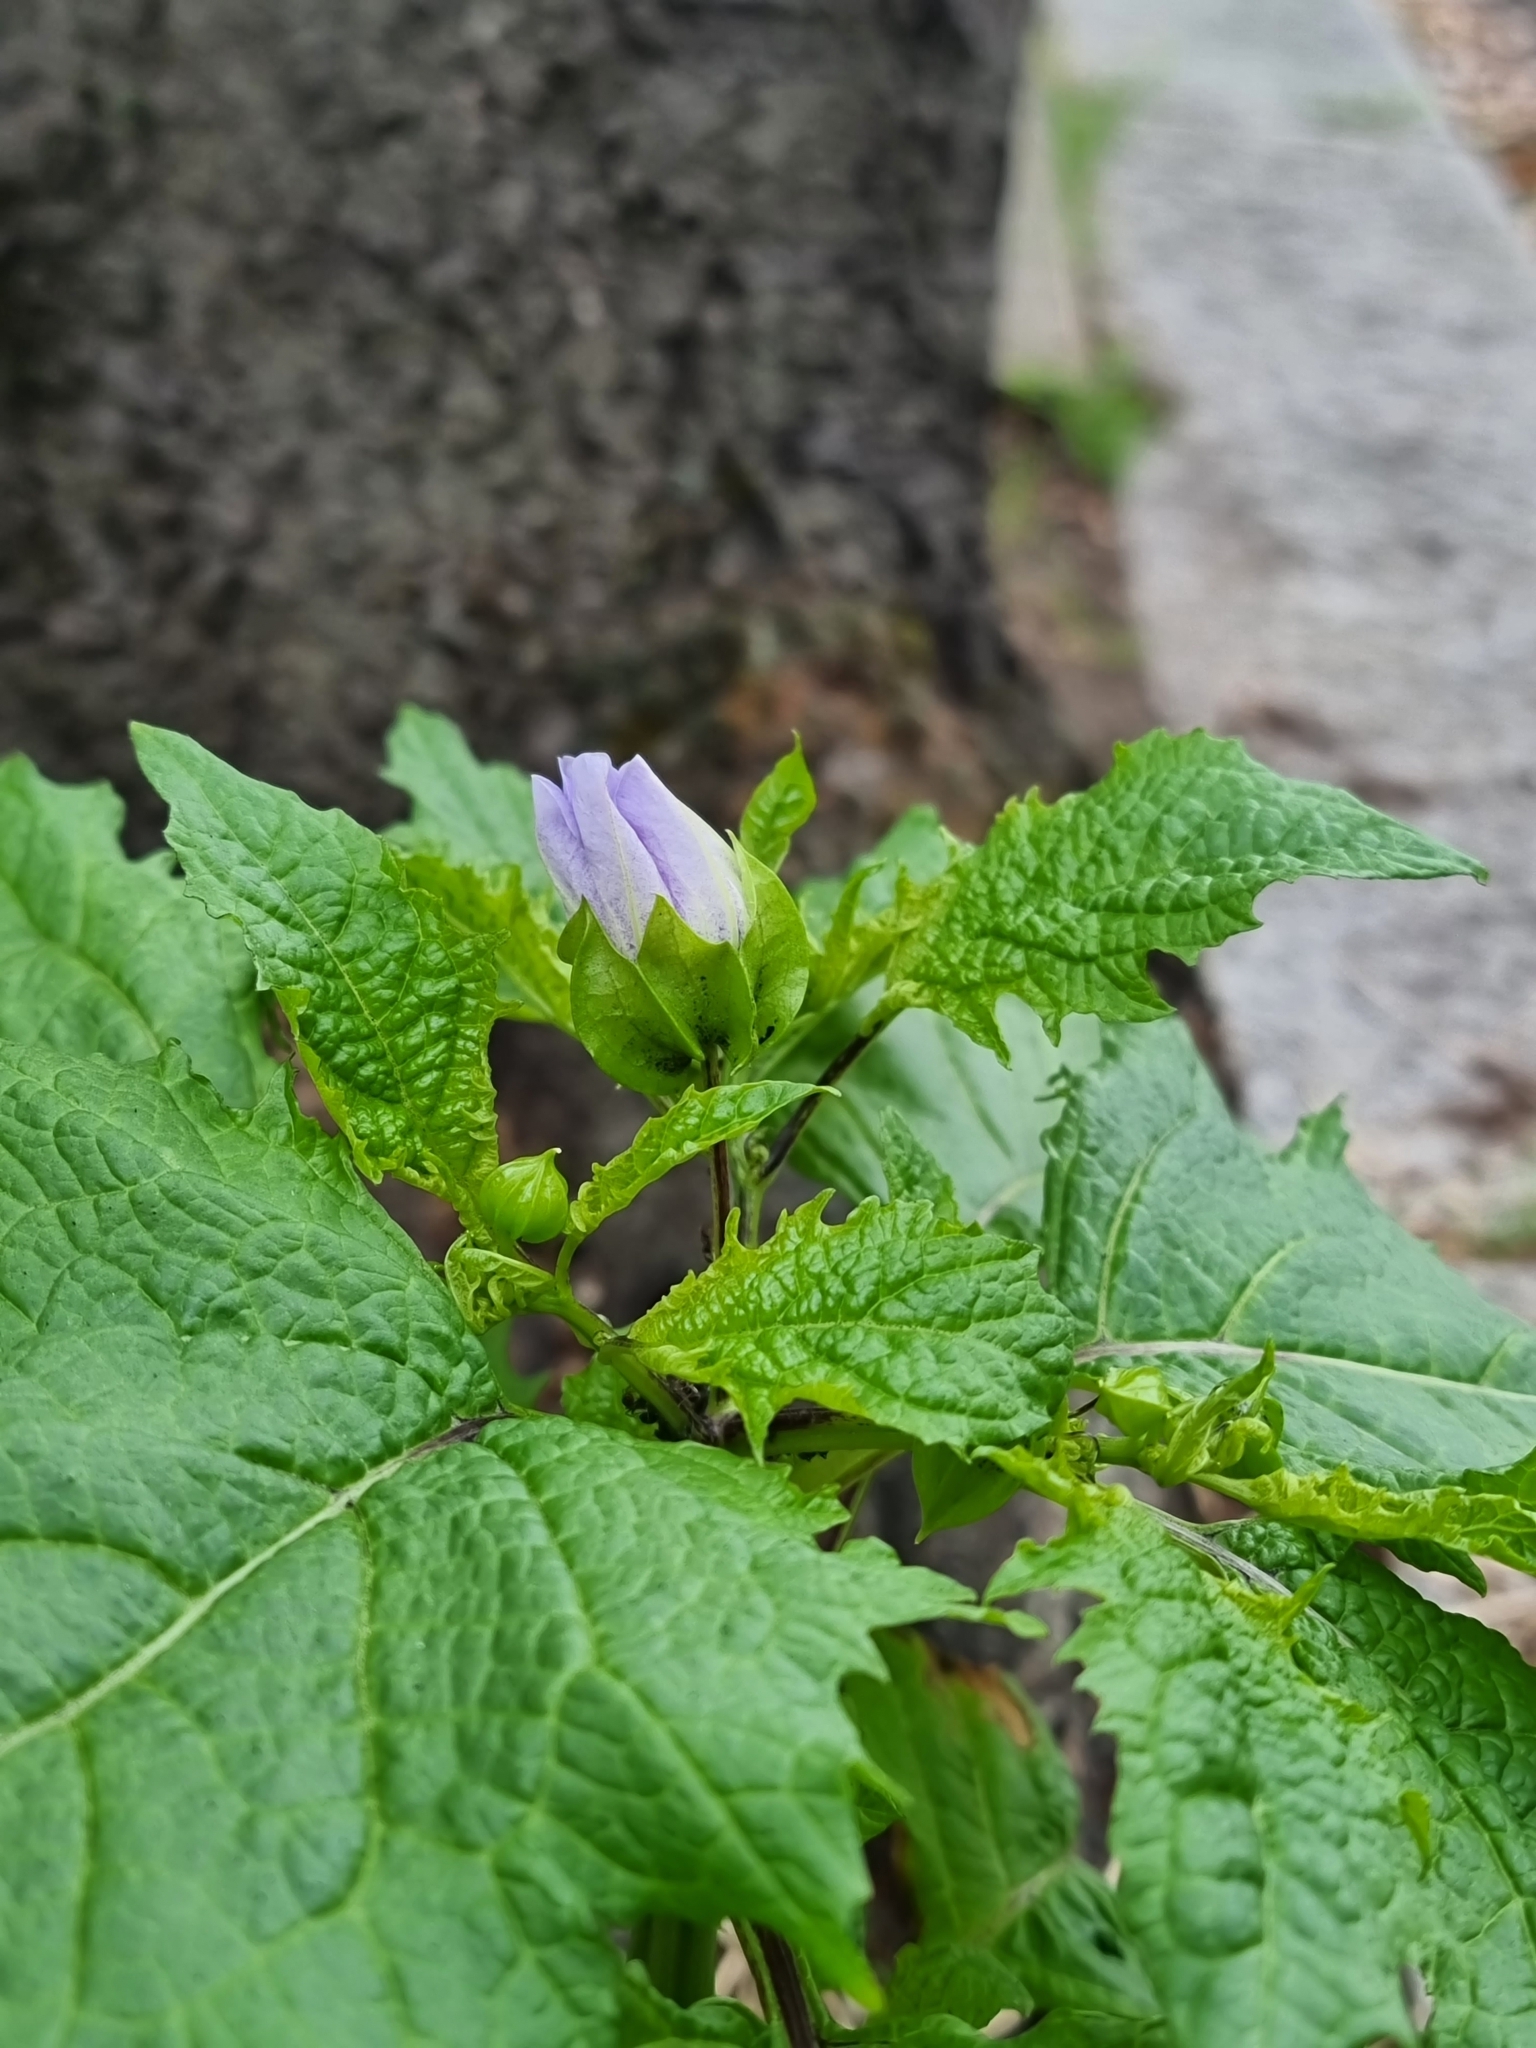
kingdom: Plantae
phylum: Tracheophyta
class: Magnoliopsida
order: Solanales
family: Solanaceae
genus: Nicandra
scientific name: Nicandra physalodes
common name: Apple-of-peru
